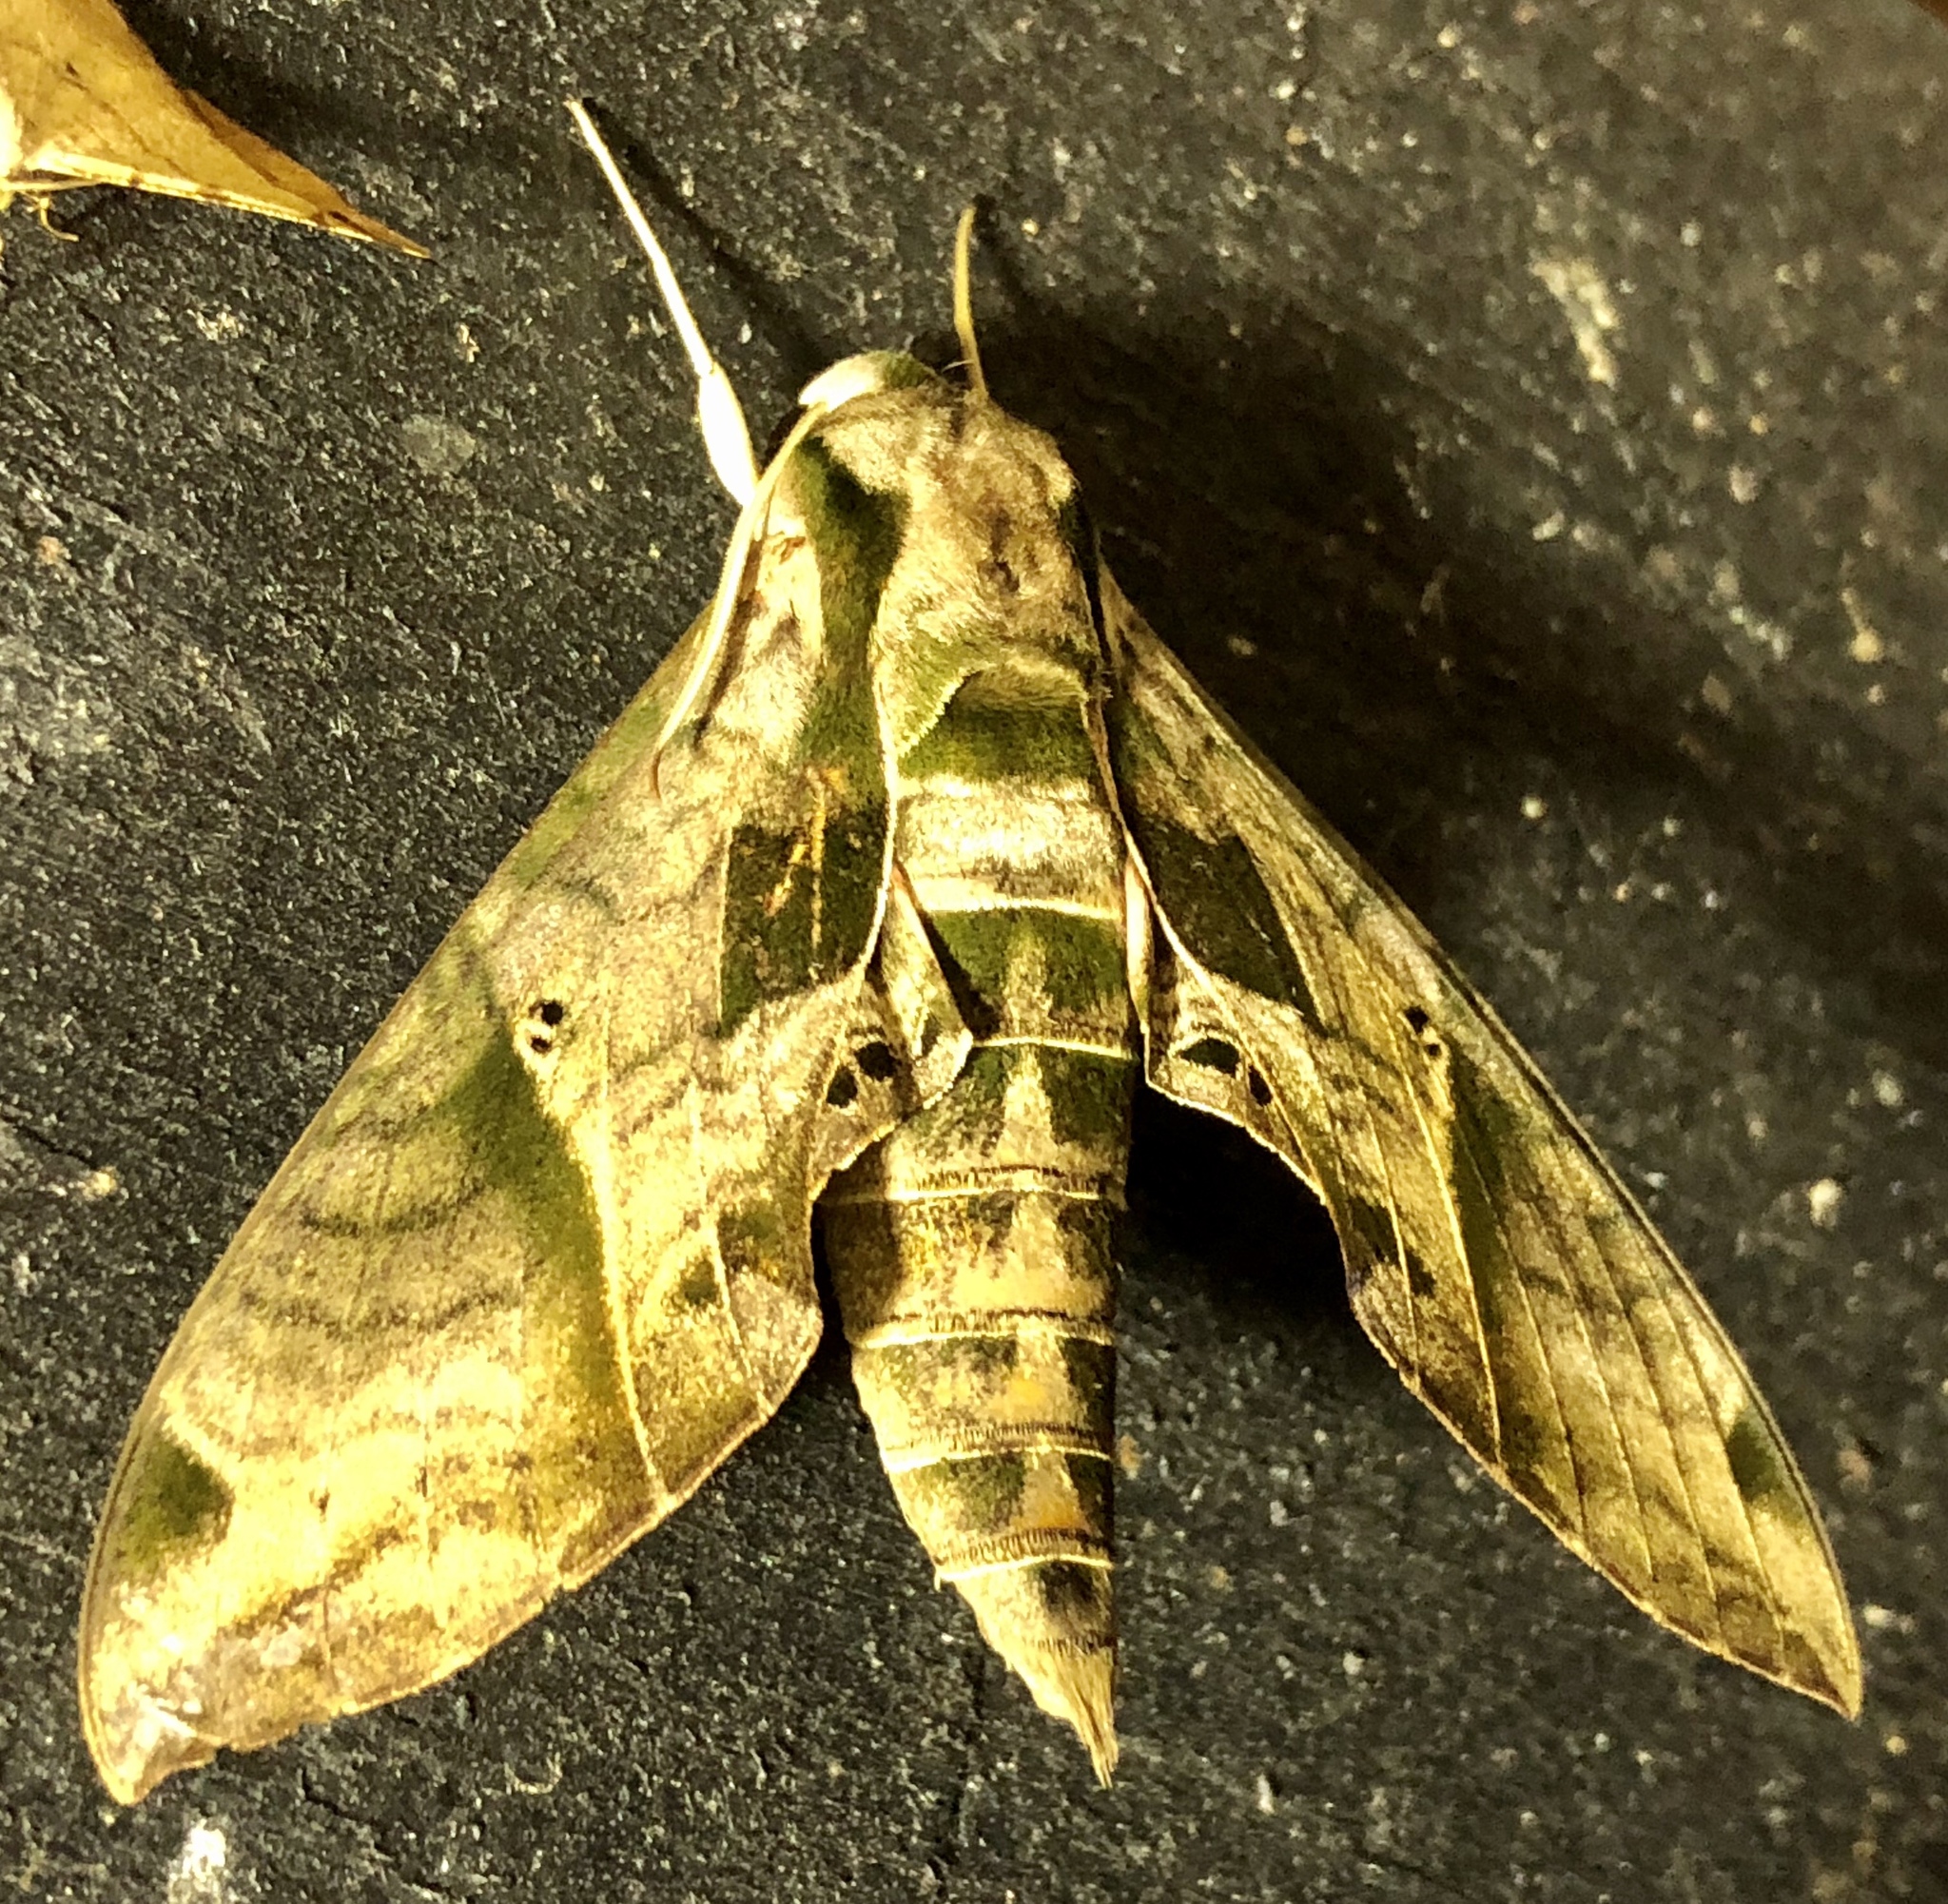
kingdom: Animalia
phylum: Arthropoda
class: Insecta
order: Lepidoptera
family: Sphingidae
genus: Eumorpha
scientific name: Eumorpha analis
